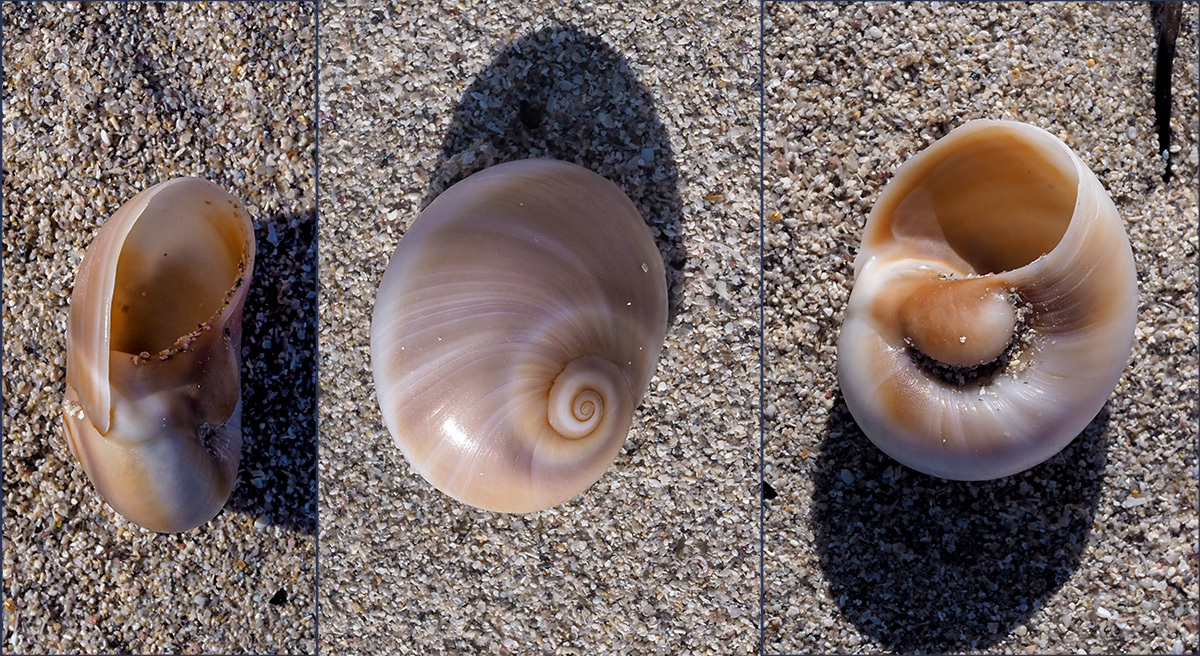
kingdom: Animalia
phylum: Mollusca
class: Gastropoda
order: Littorinimorpha
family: Naticidae
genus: Neverita
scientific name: Neverita josephinia
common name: Josephine's moonsnail
